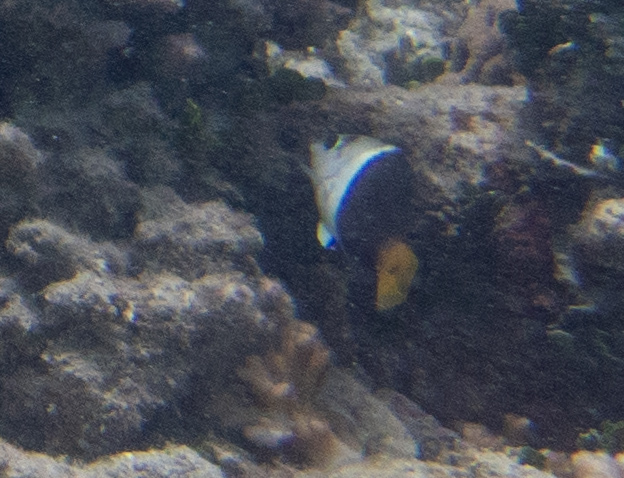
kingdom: Animalia
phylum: Chordata
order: Perciformes
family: Labridae
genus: Hemigymnus
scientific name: Hemigymnus melapterus
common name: Blackeye thicklip
